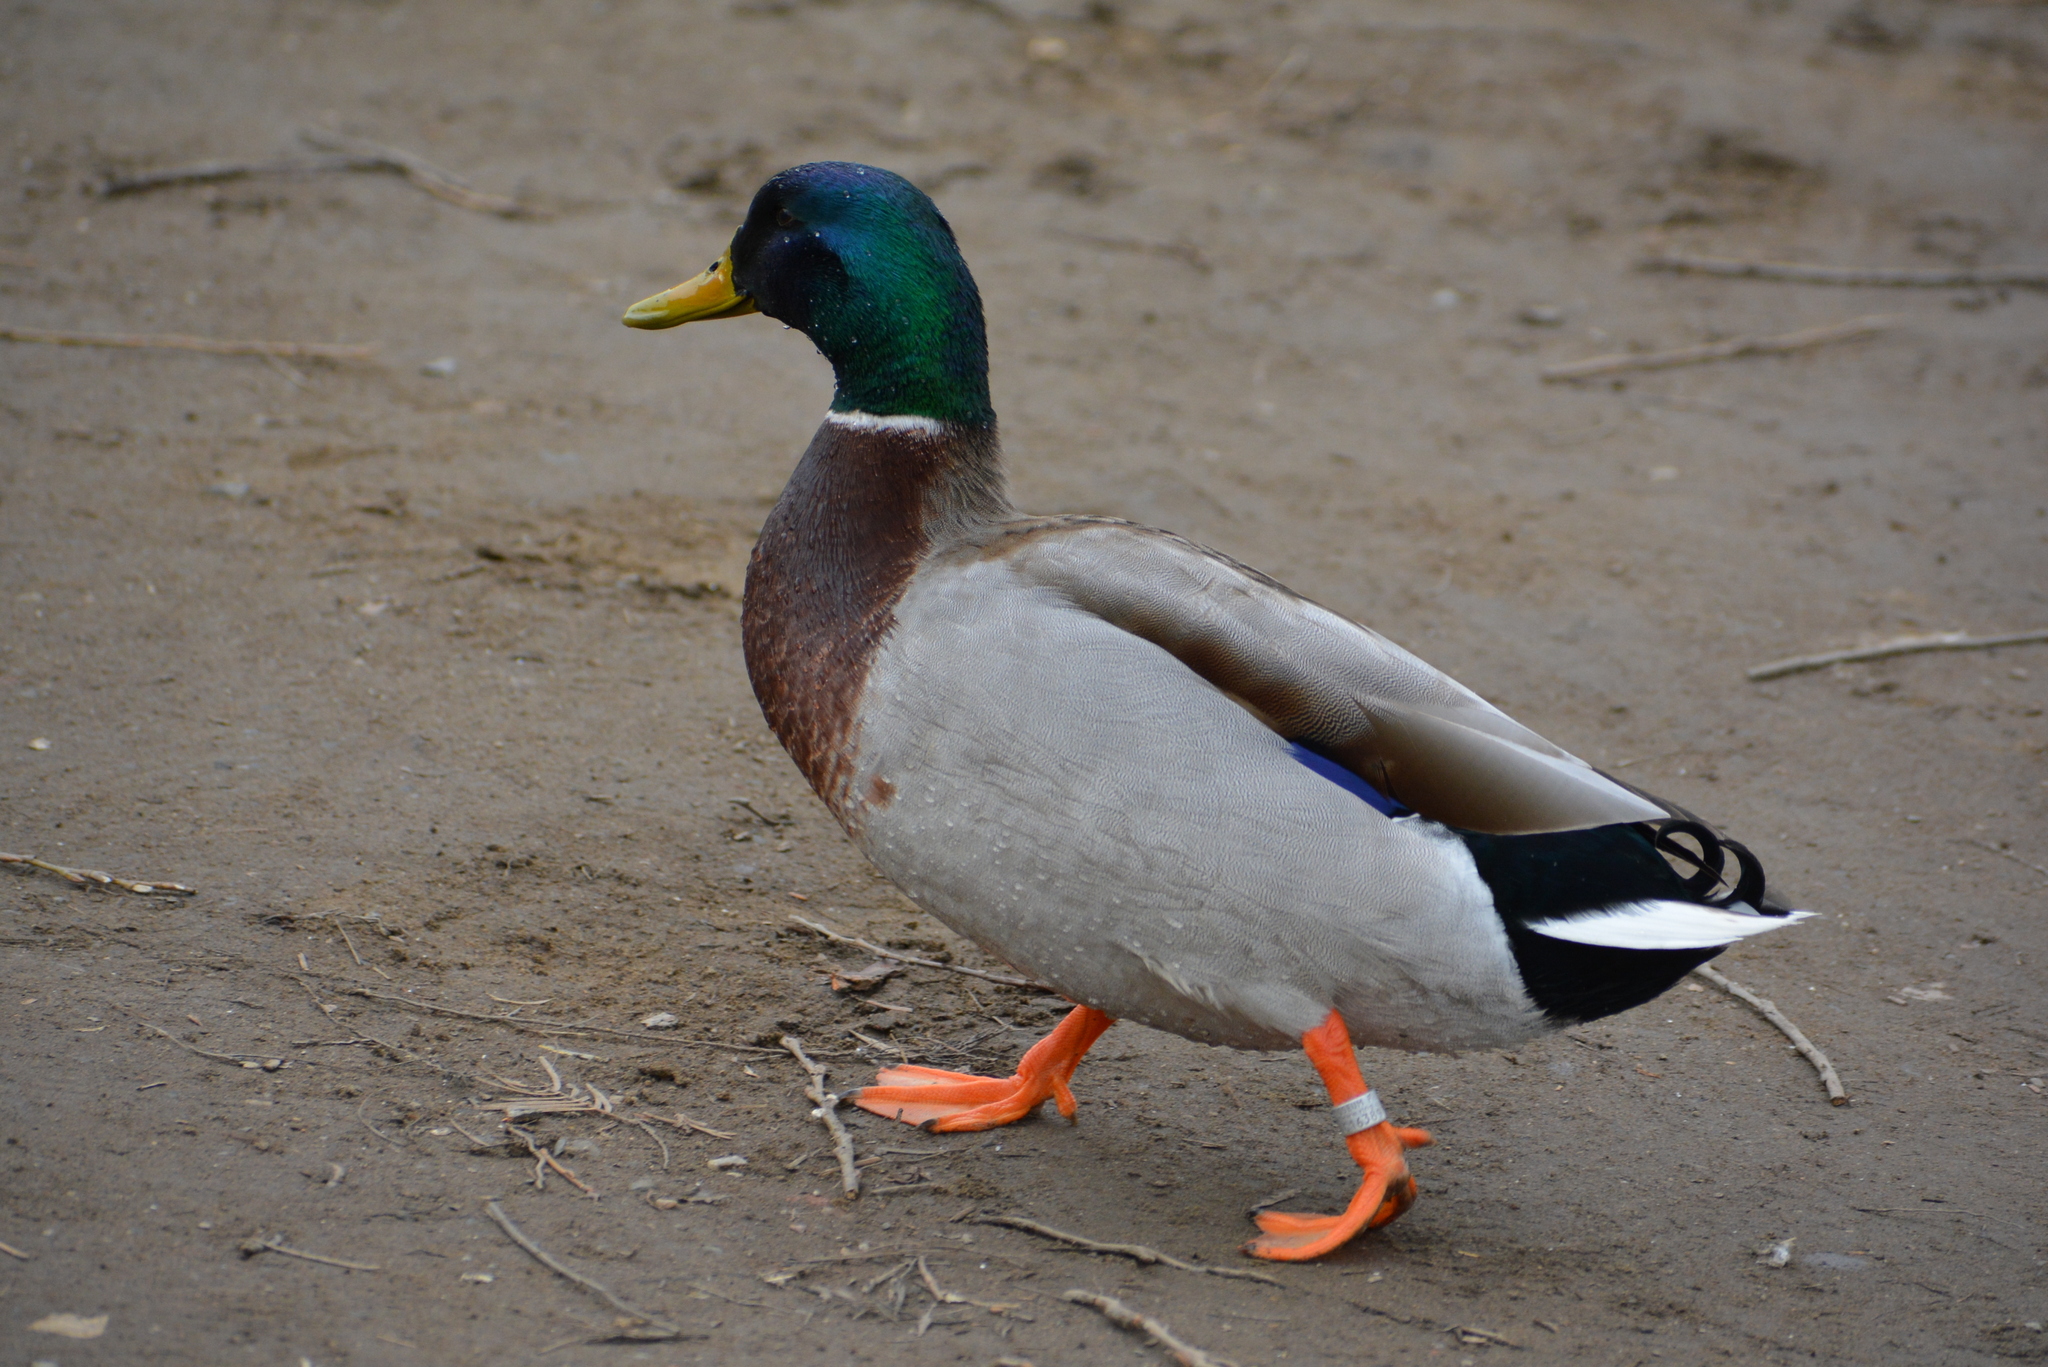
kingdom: Animalia
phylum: Chordata
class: Aves
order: Anseriformes
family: Anatidae
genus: Anas
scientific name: Anas platyrhynchos
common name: Mallard
